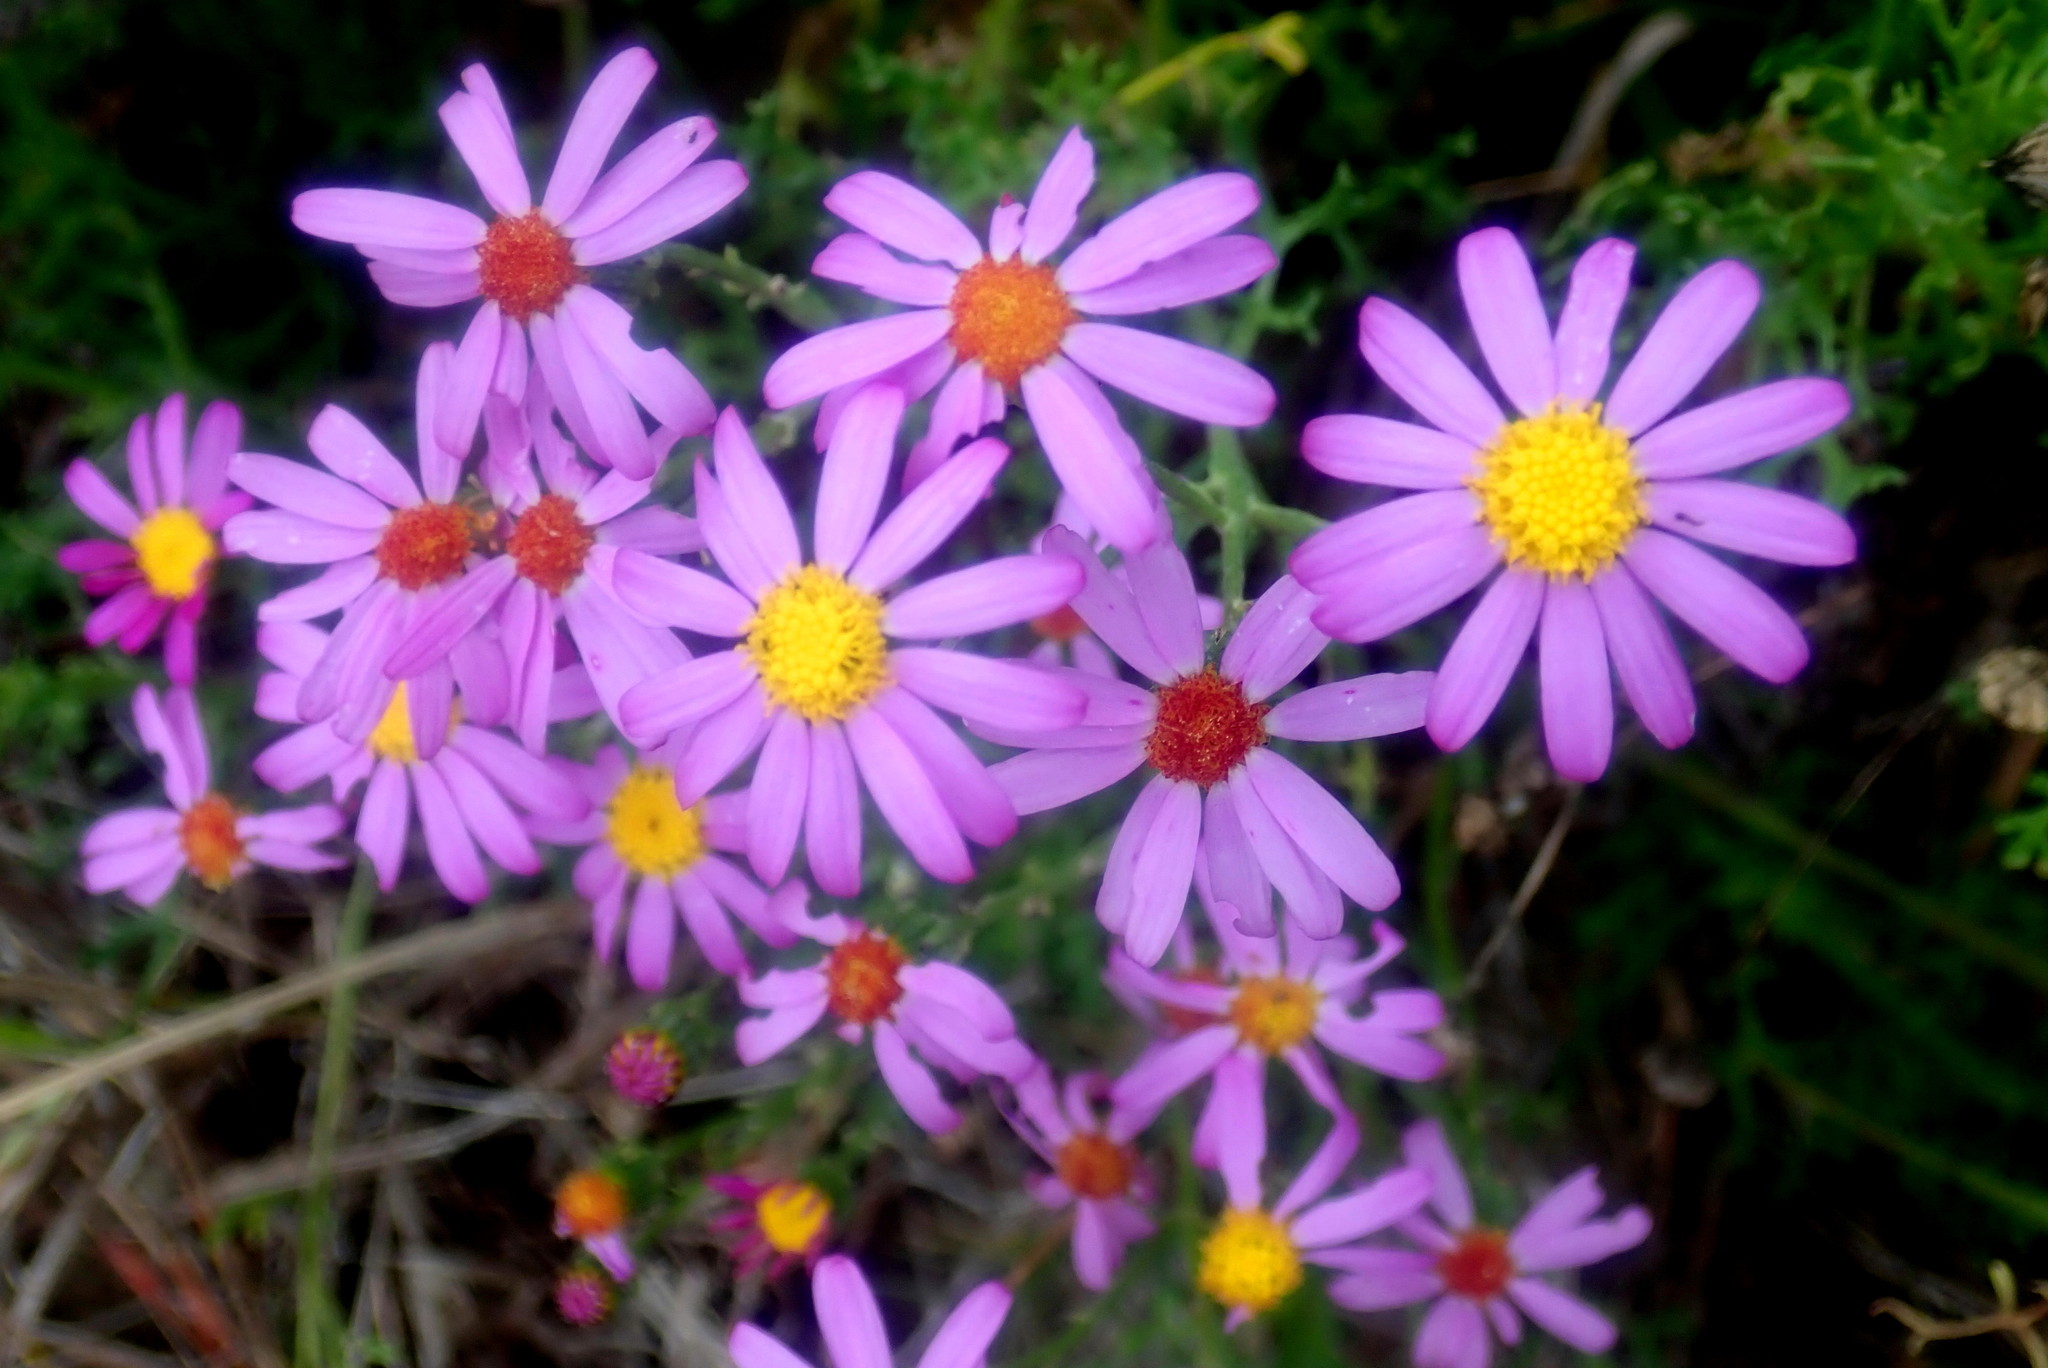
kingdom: Plantae
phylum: Tracheophyta
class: Magnoliopsida
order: Asterales
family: Asteraceae
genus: Senecio
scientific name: Senecio elegans
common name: Purple groundsel
